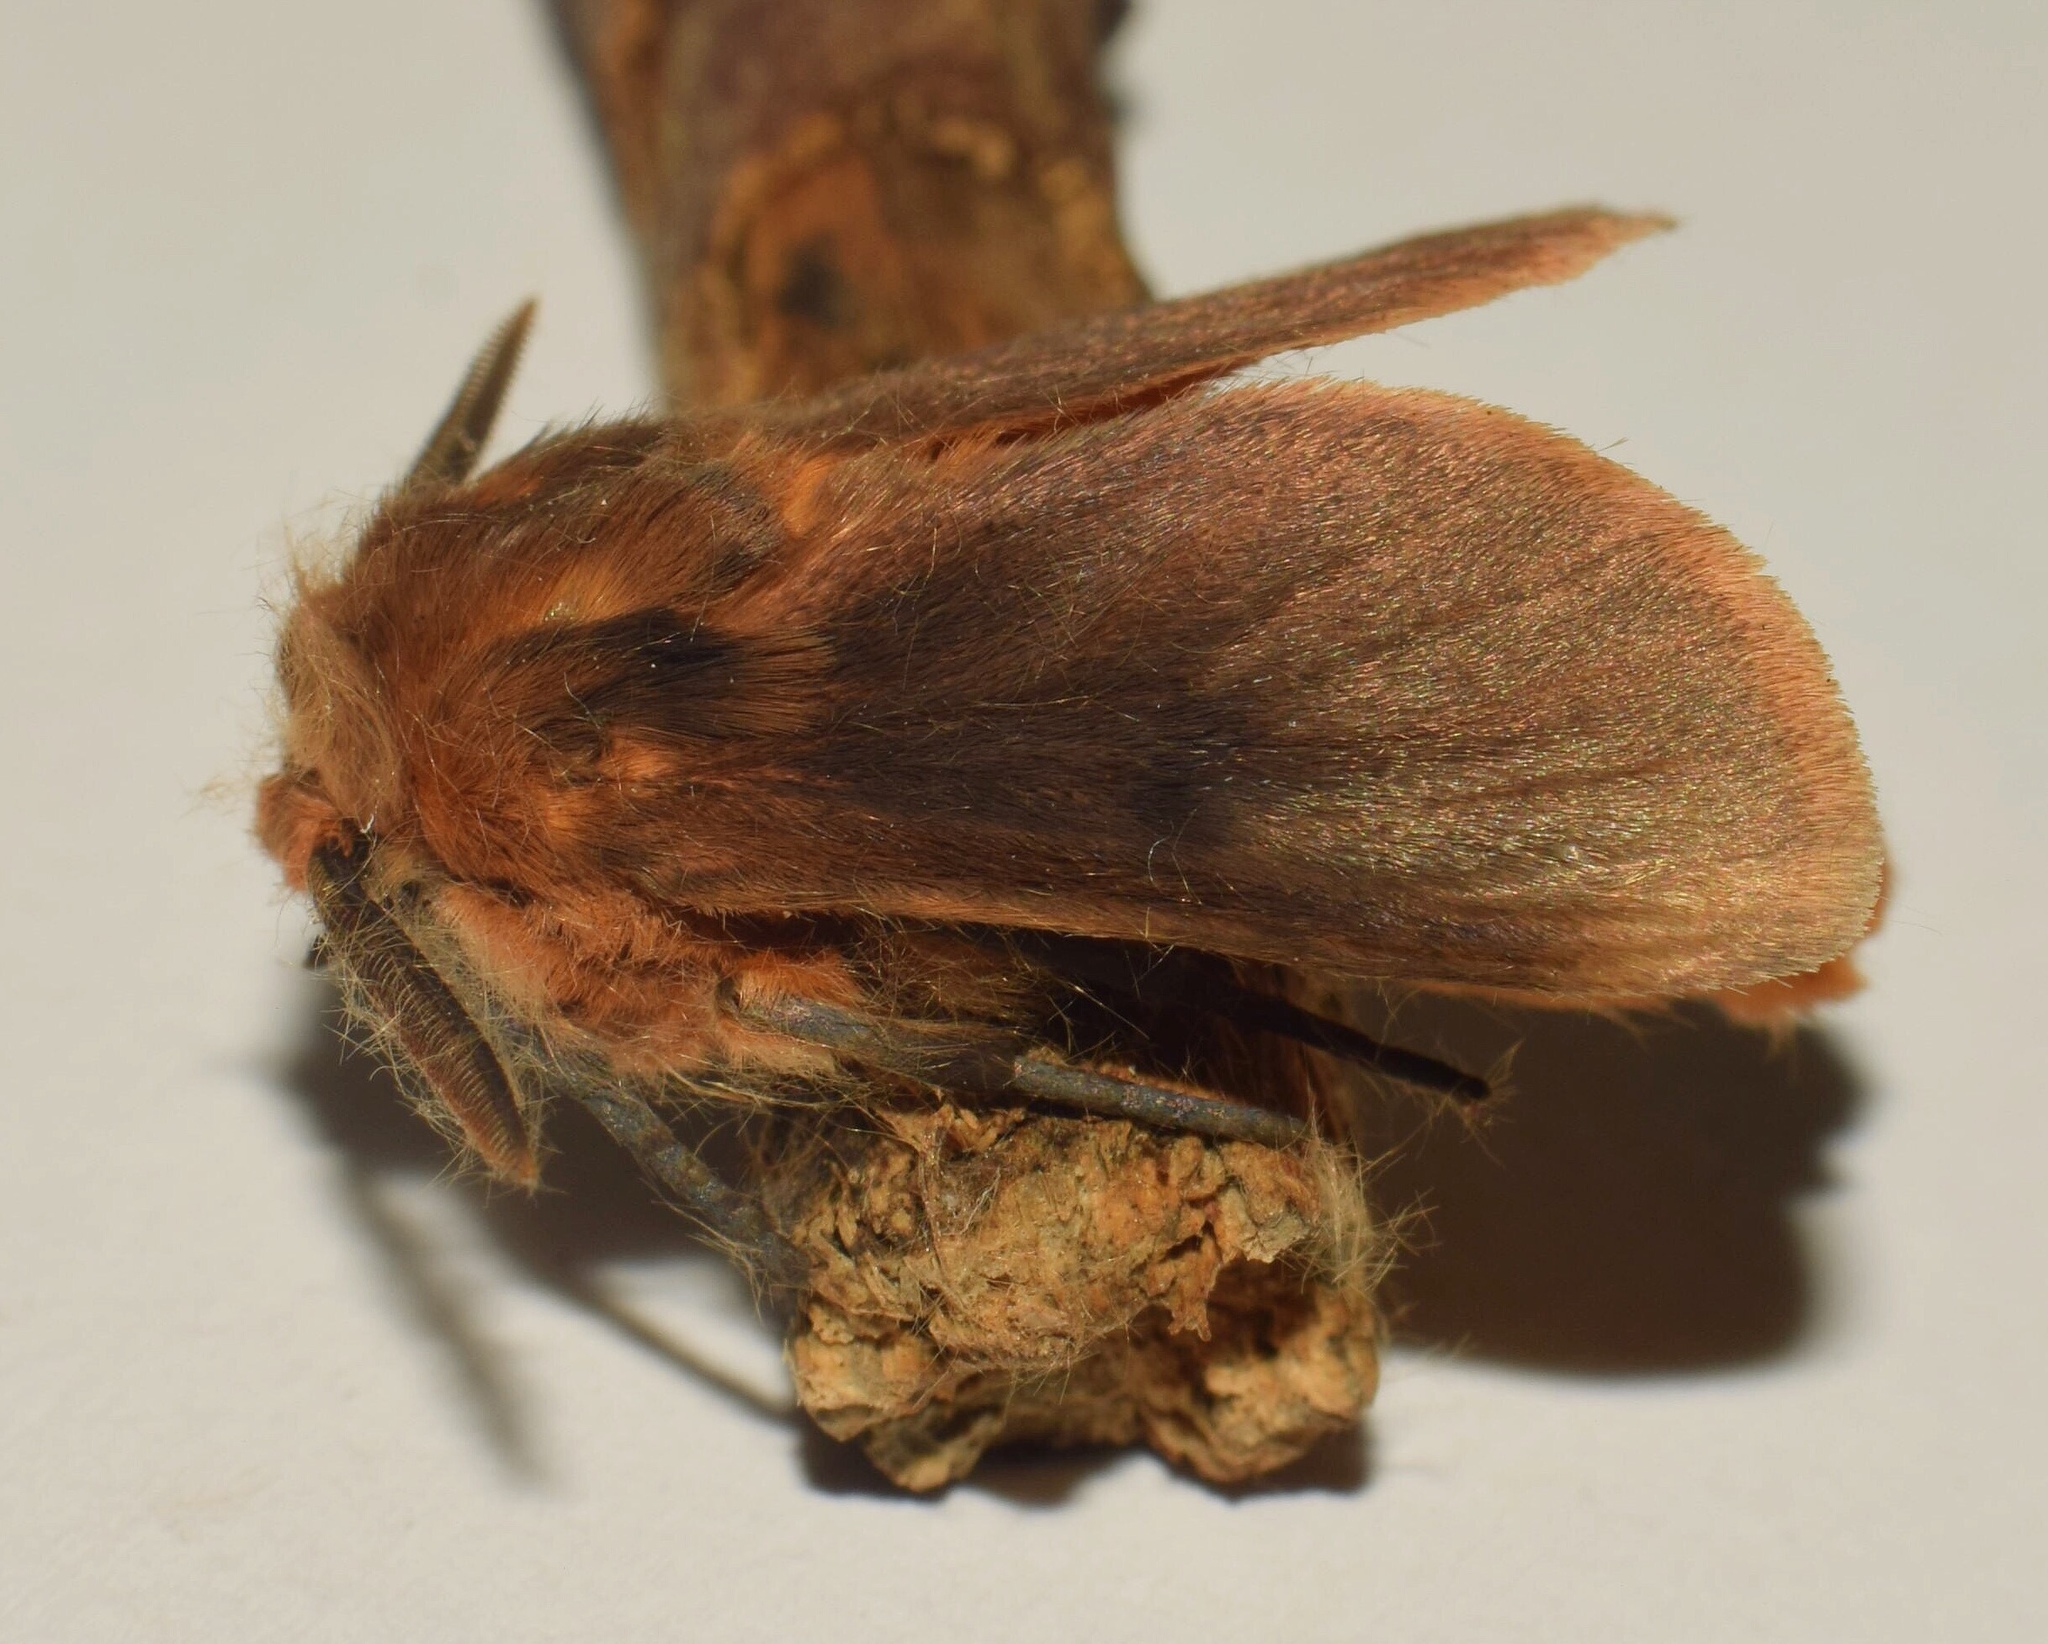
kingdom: Animalia
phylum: Arthropoda
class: Insecta
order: Lepidoptera
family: Erebidae
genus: Automolis
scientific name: Automolis jansei
